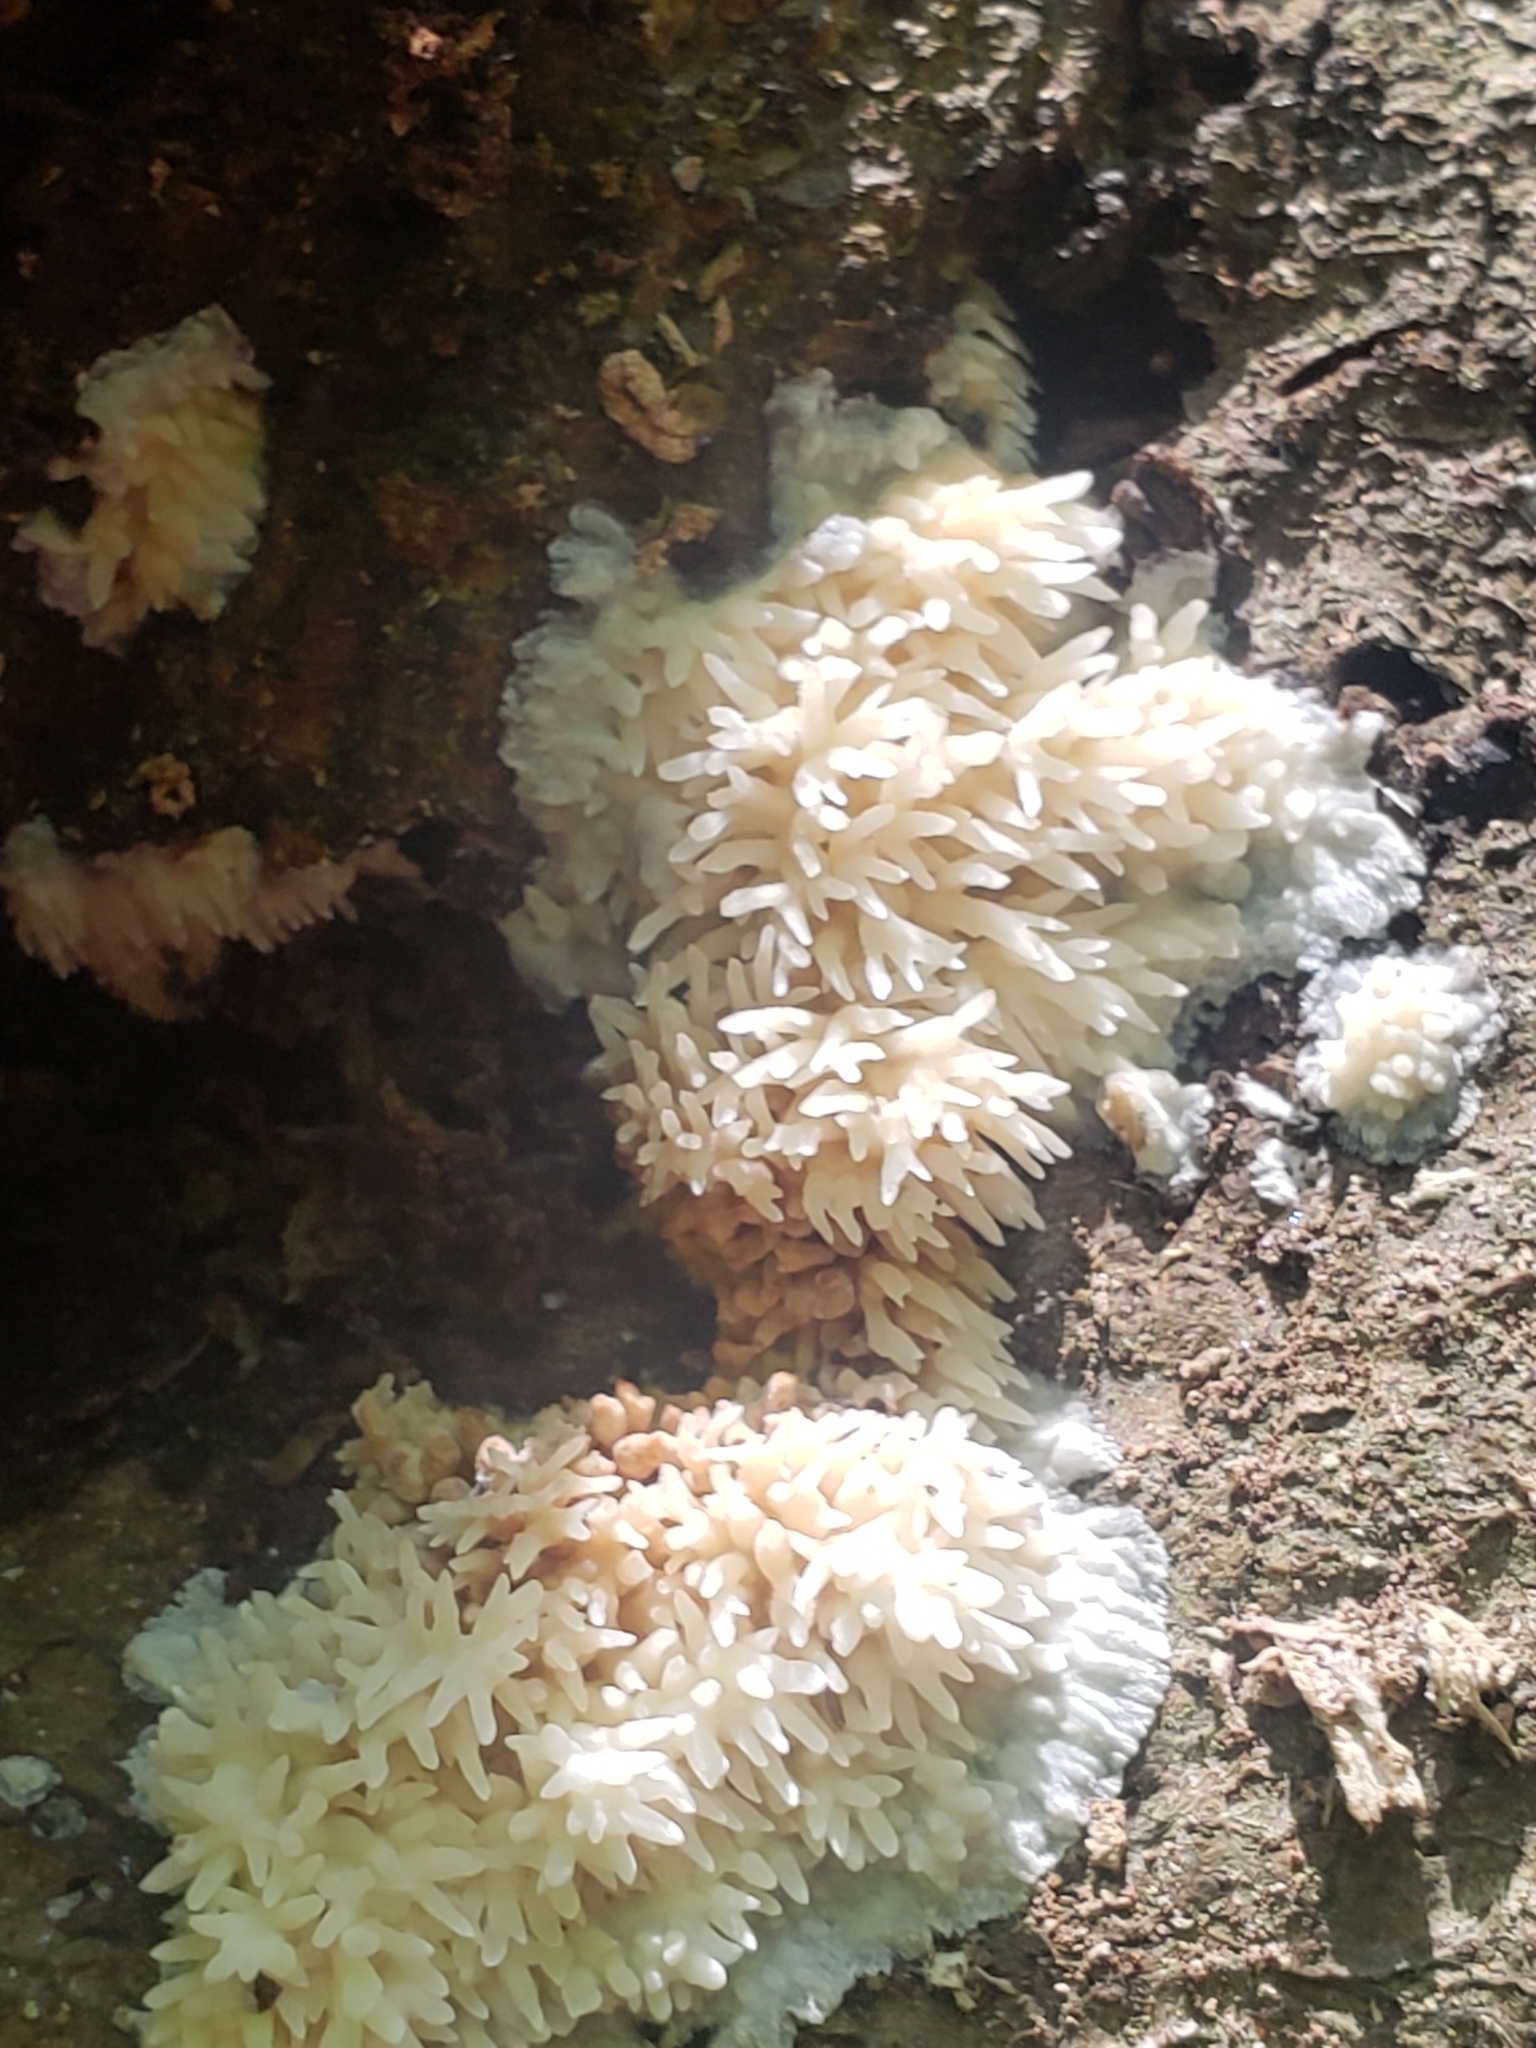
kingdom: Fungi
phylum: Basidiomycota
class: Agaricomycetes
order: Agaricales
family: Radulomycetaceae
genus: Radulomyces
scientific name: Radulomyces copelandii
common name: Asian beauty
